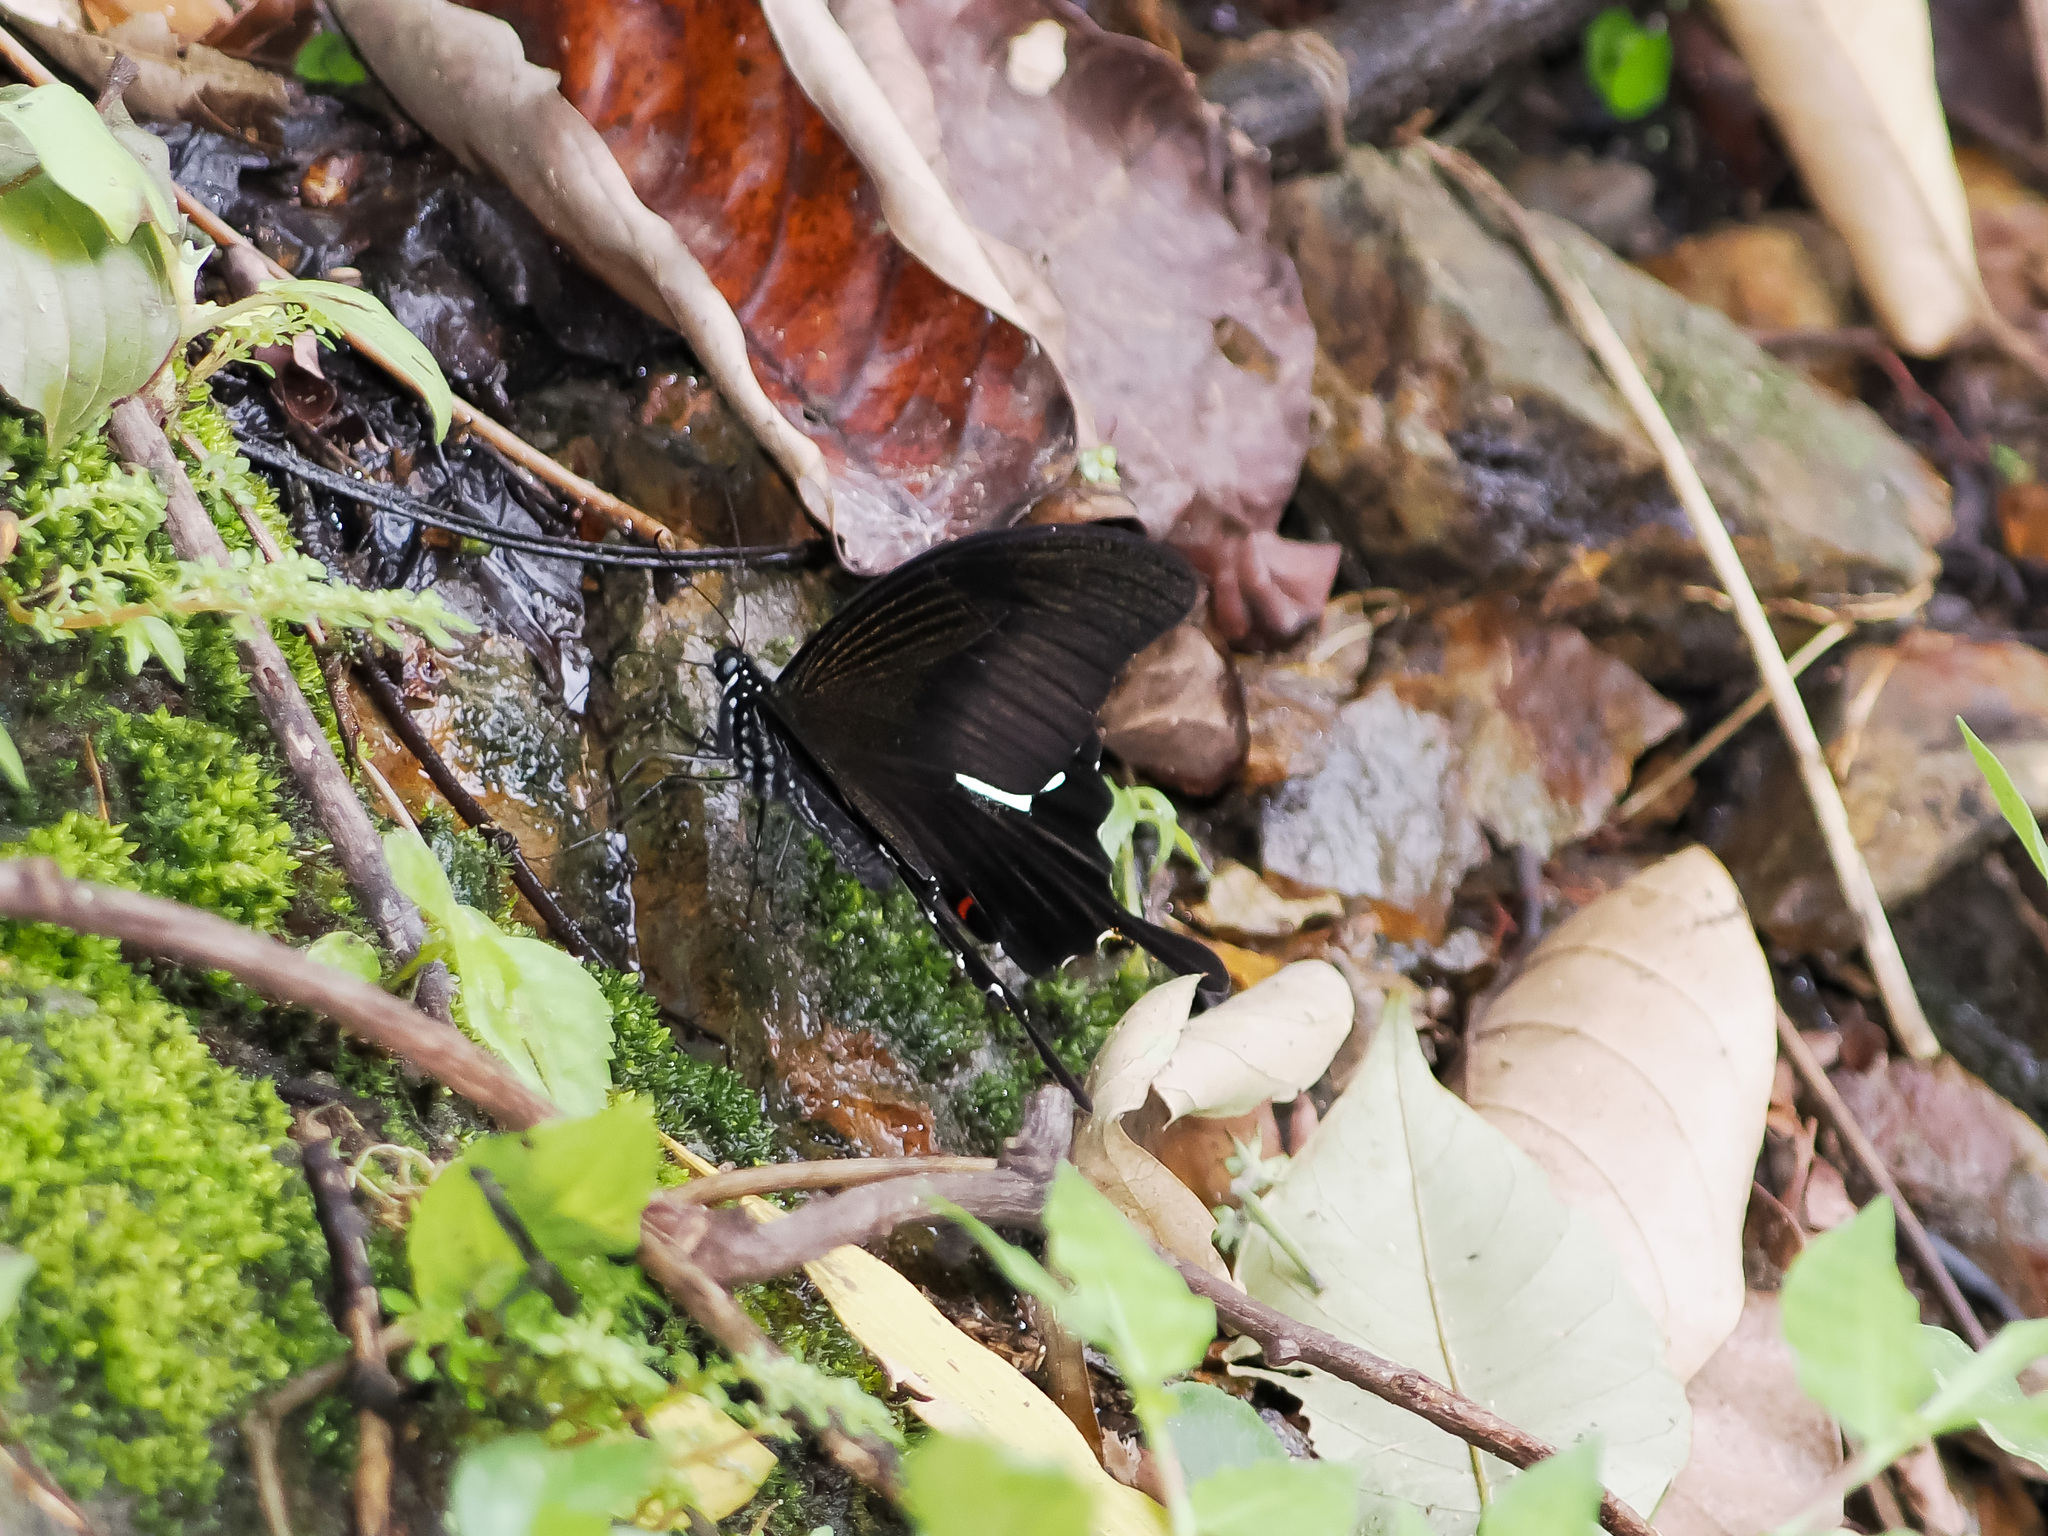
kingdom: Animalia
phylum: Arthropoda
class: Insecta
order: Lepidoptera
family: Papilionidae
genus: Papilio
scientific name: Papilio helenus
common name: Red helen
